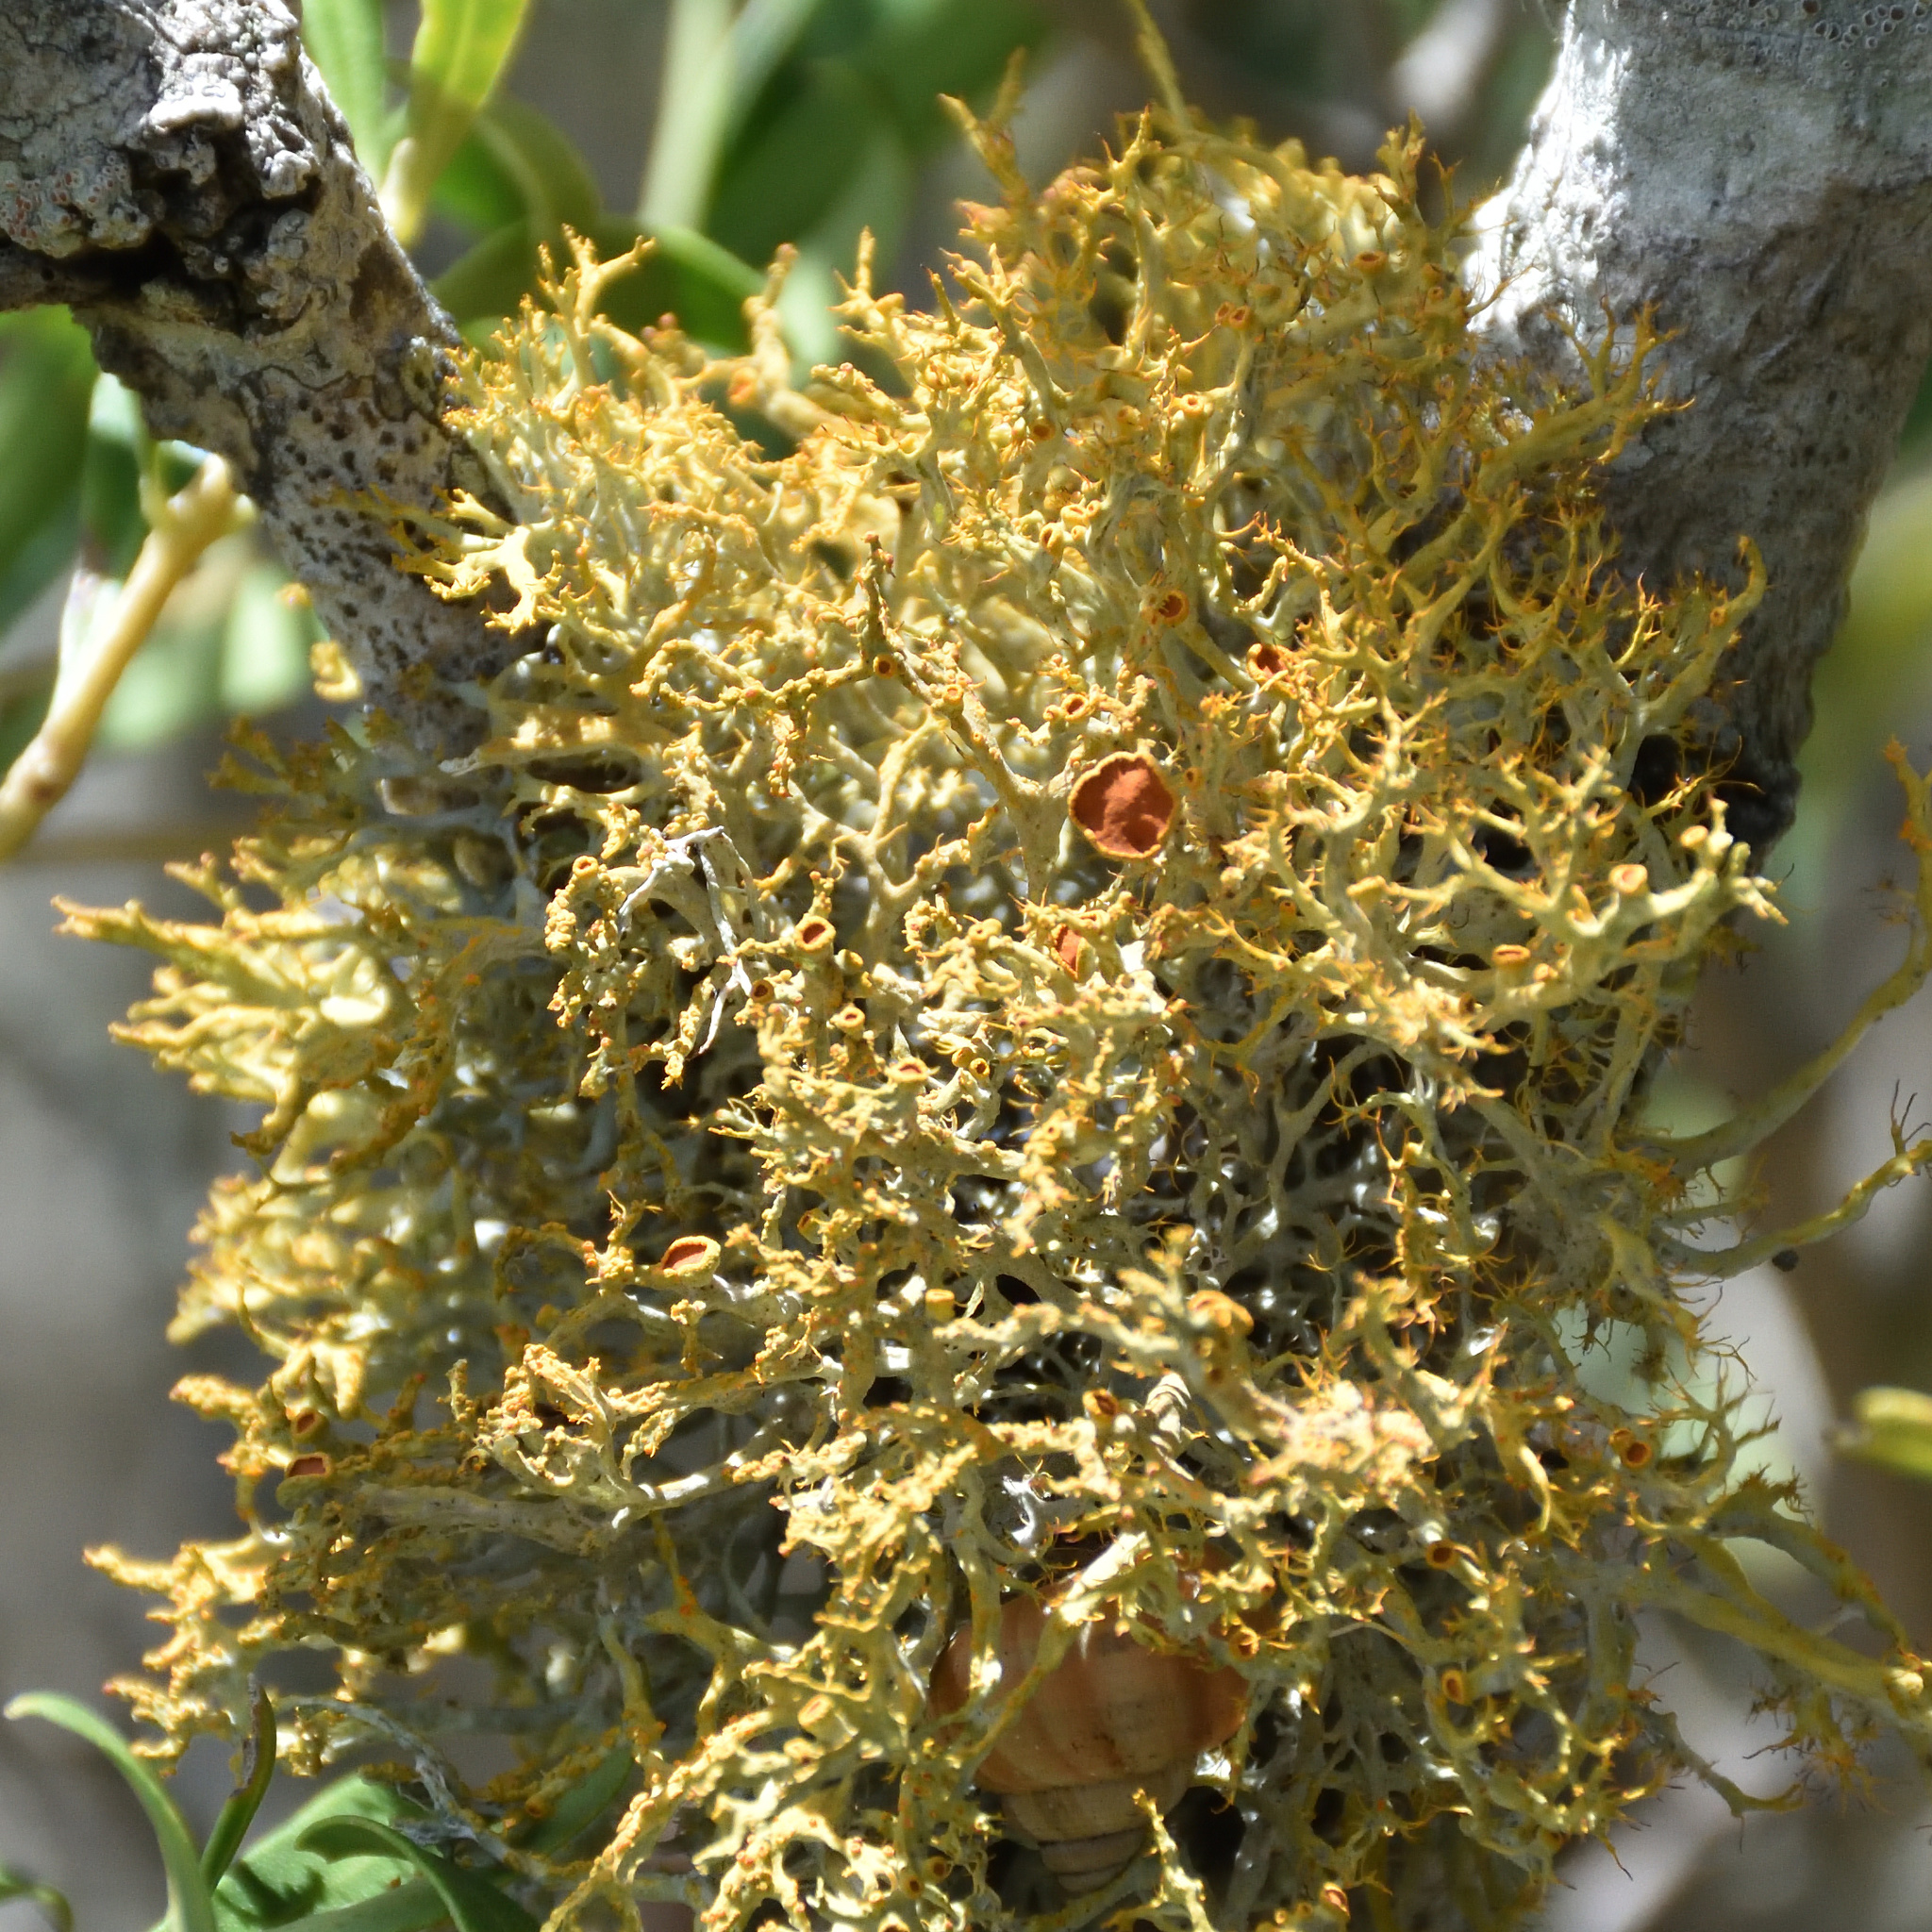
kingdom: Fungi
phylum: Ascomycota
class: Lecanoromycetes
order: Teloschistales
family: Teloschistaceae
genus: Teloschistes
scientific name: Teloschistes inflatus
